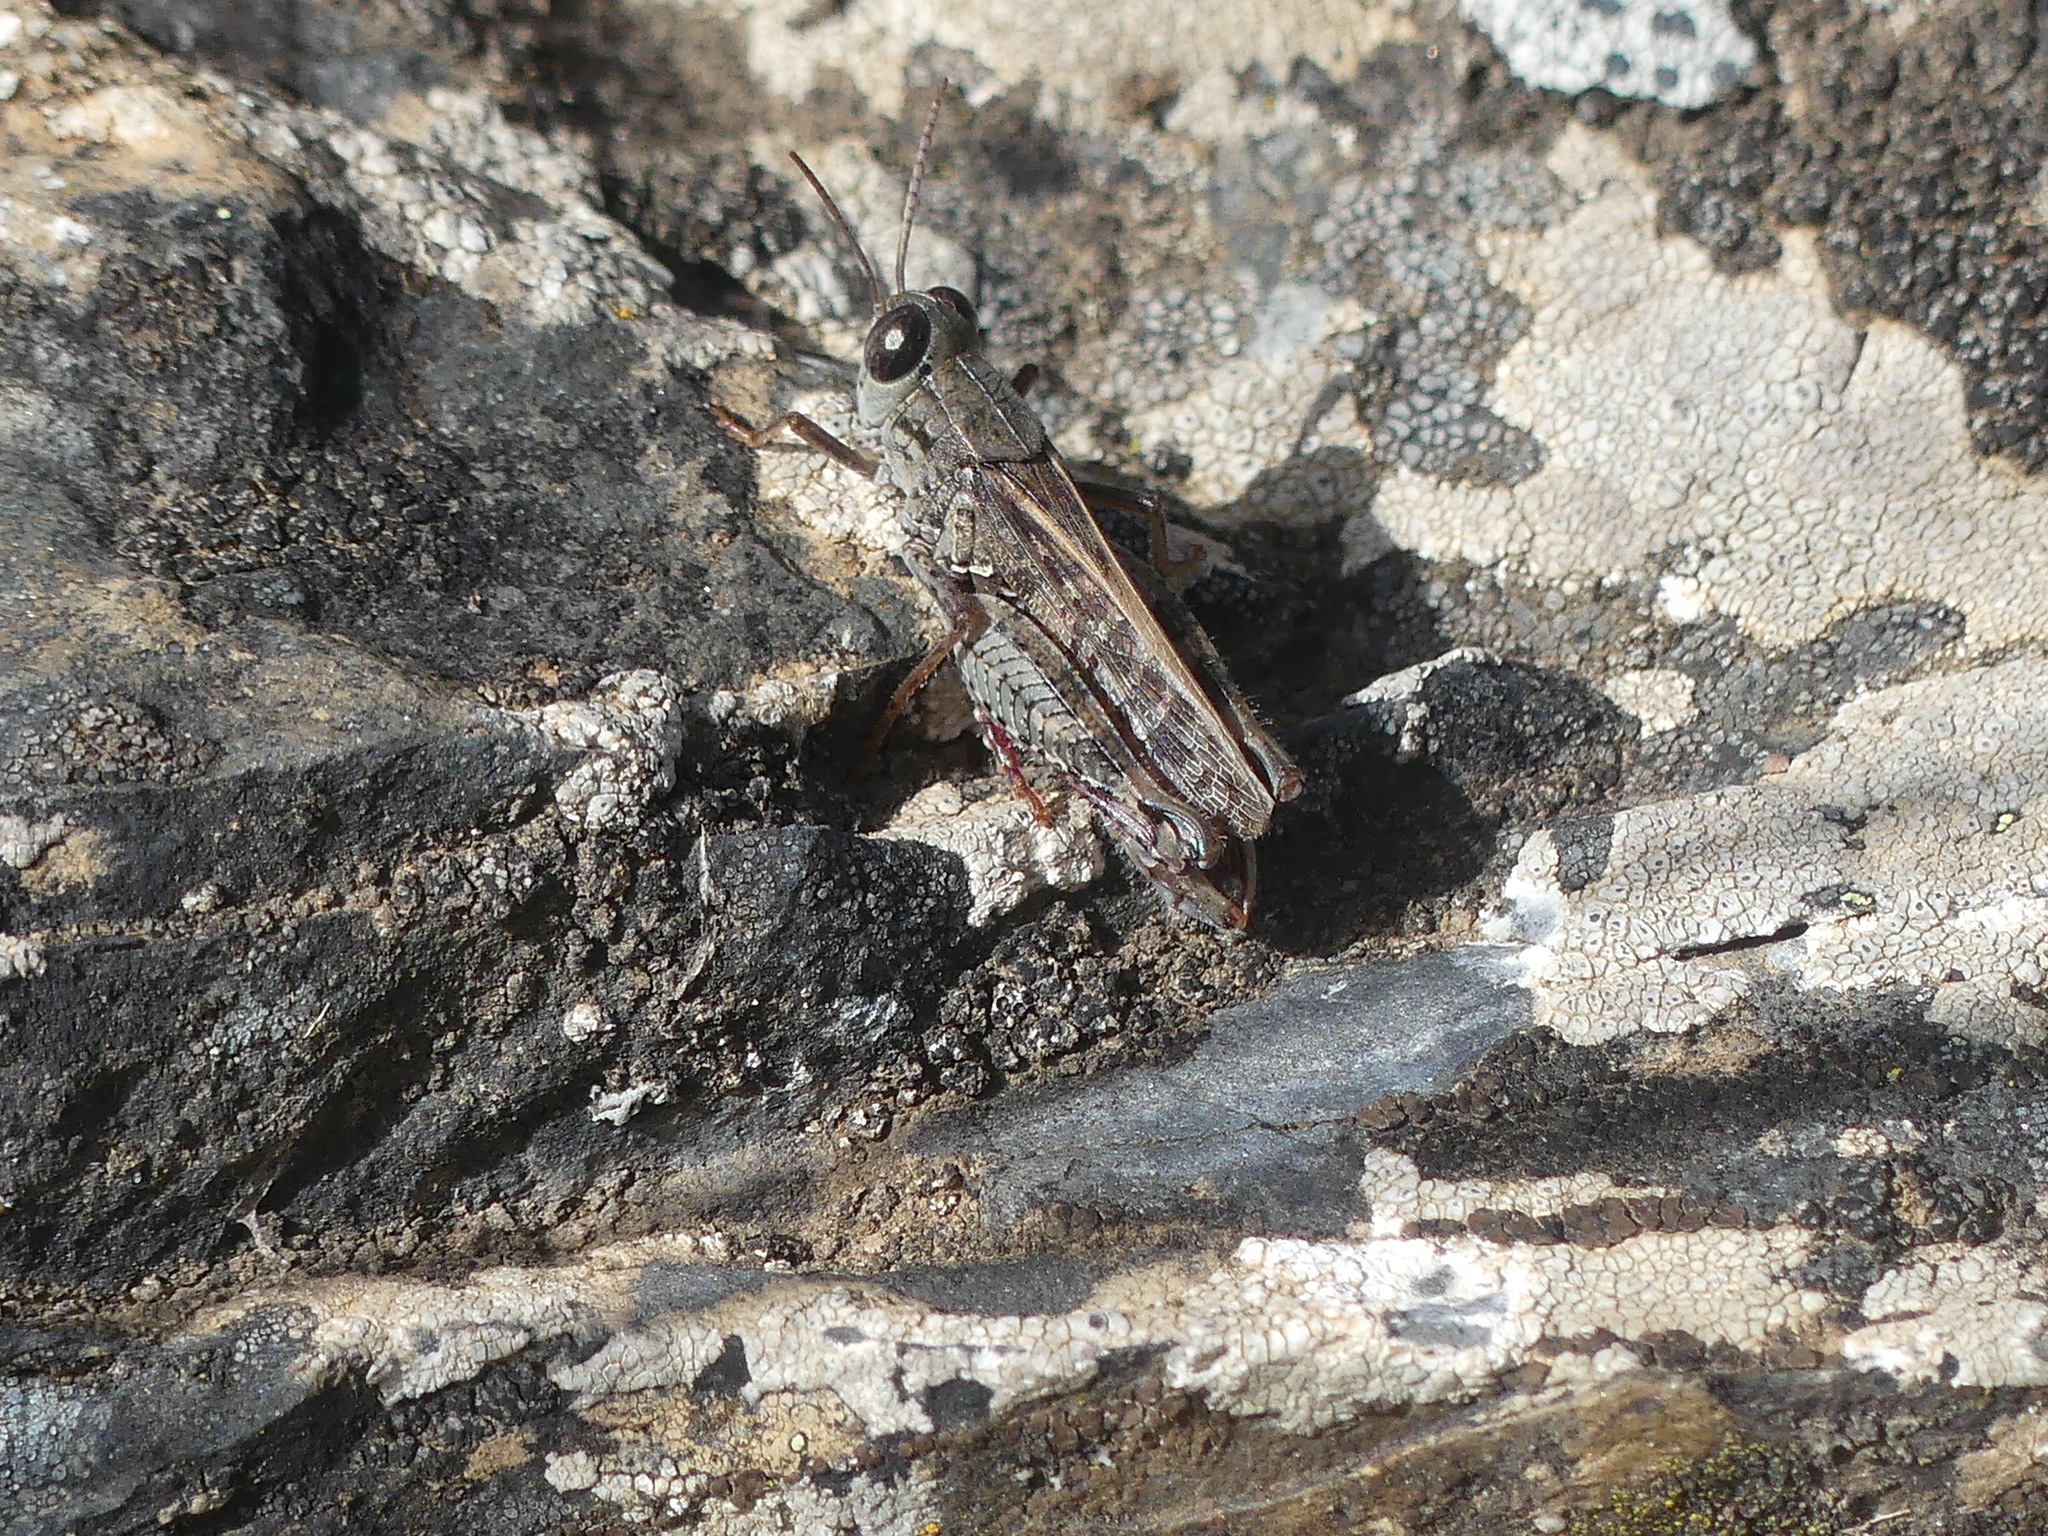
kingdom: Animalia
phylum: Arthropoda
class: Insecta
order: Orthoptera
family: Acrididae
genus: Calliptamus
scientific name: Calliptamus barbarus
